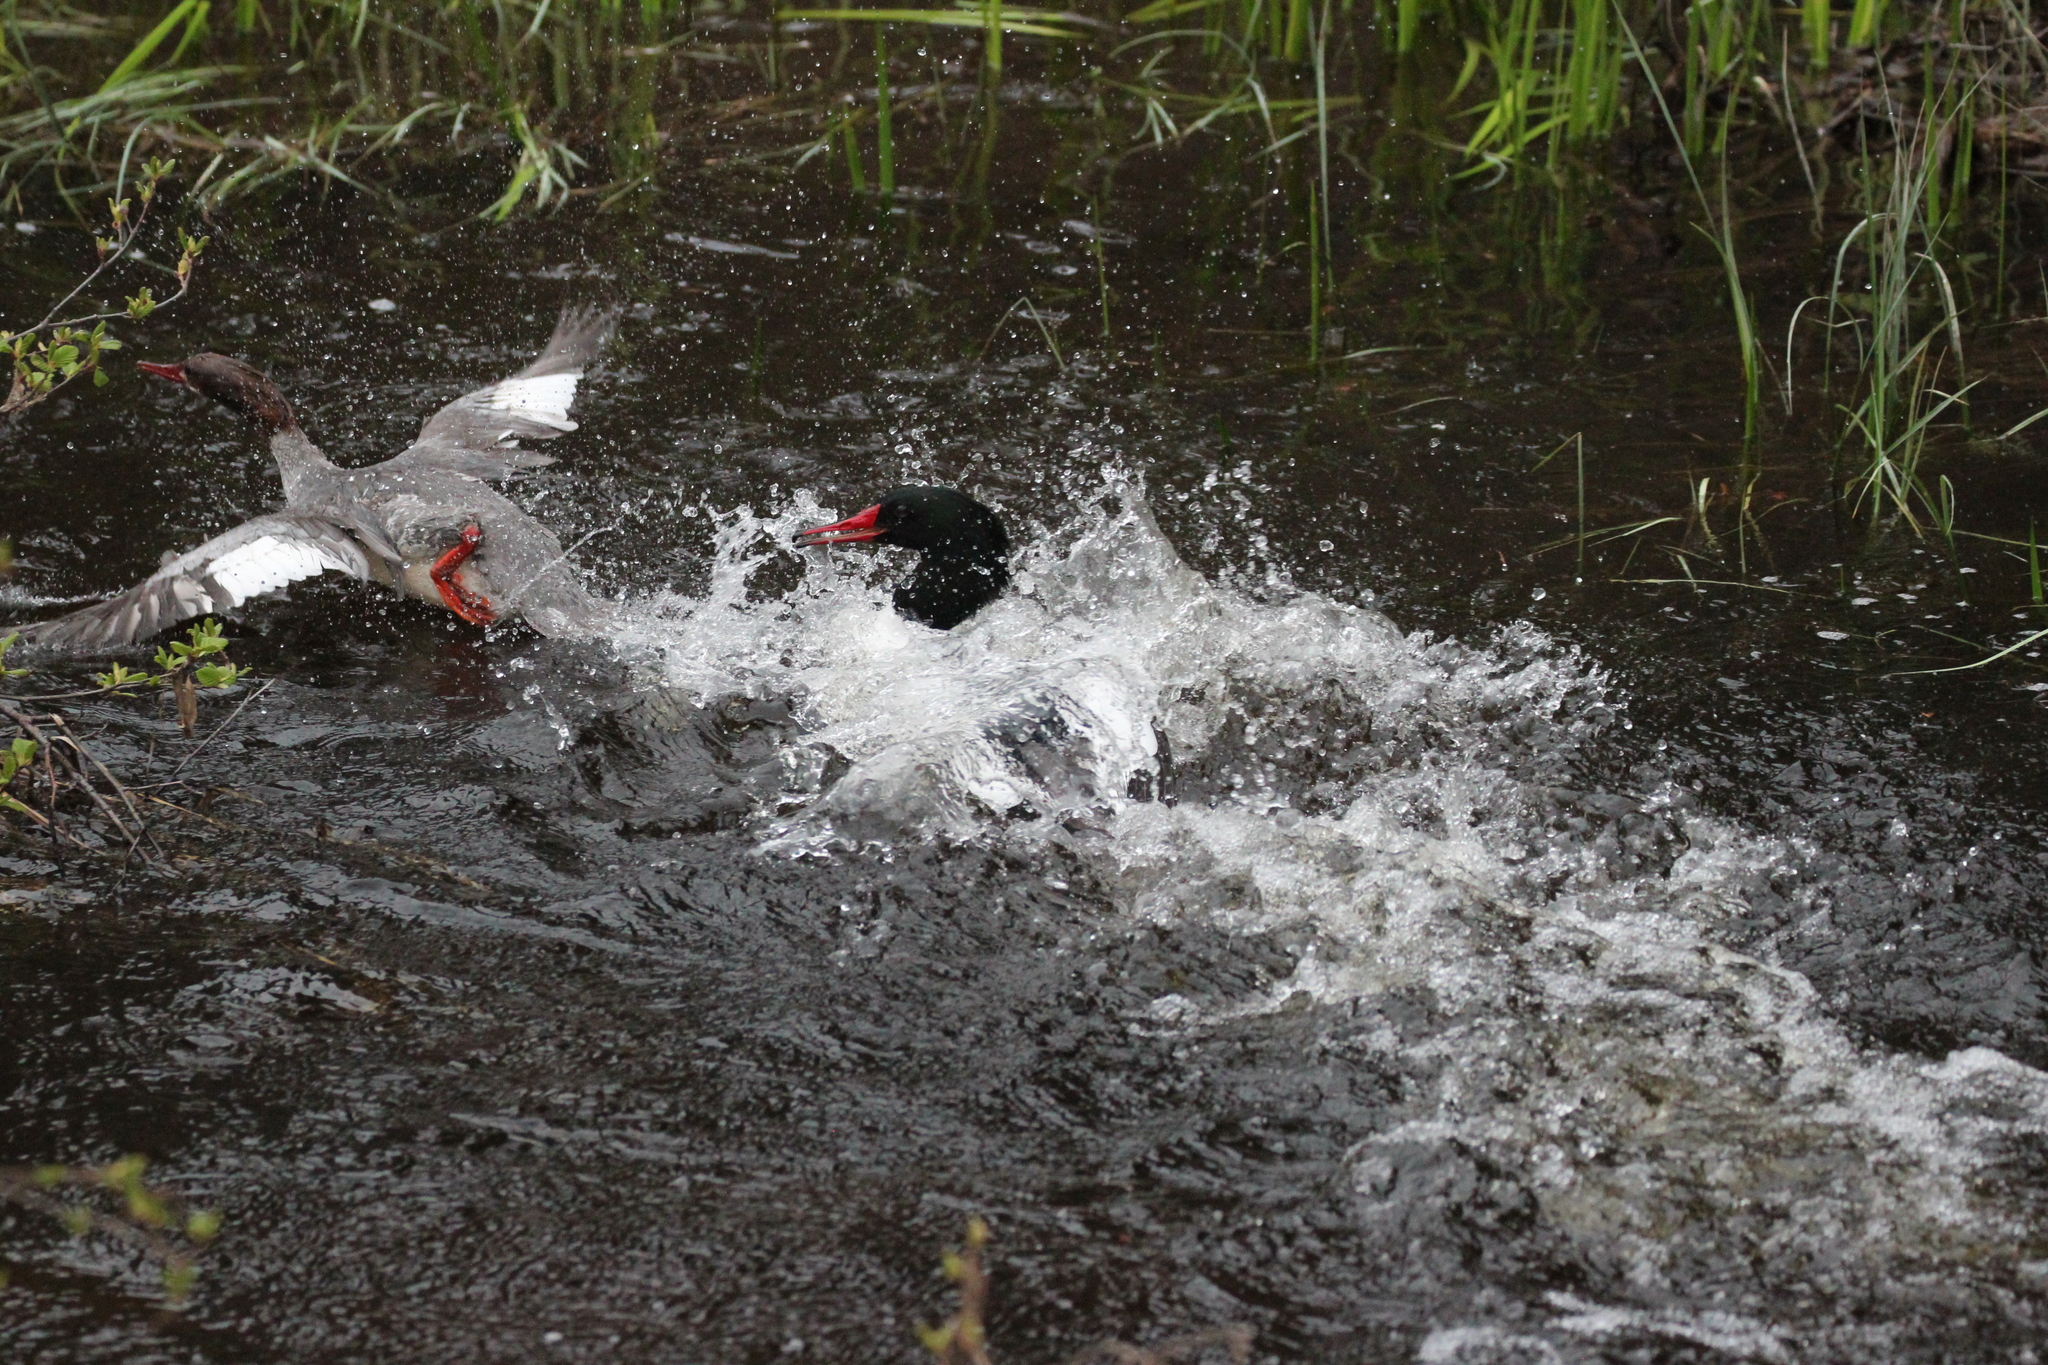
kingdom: Animalia
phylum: Chordata
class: Aves
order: Anseriformes
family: Anatidae
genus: Mergus
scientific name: Mergus merganser
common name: Common merganser
